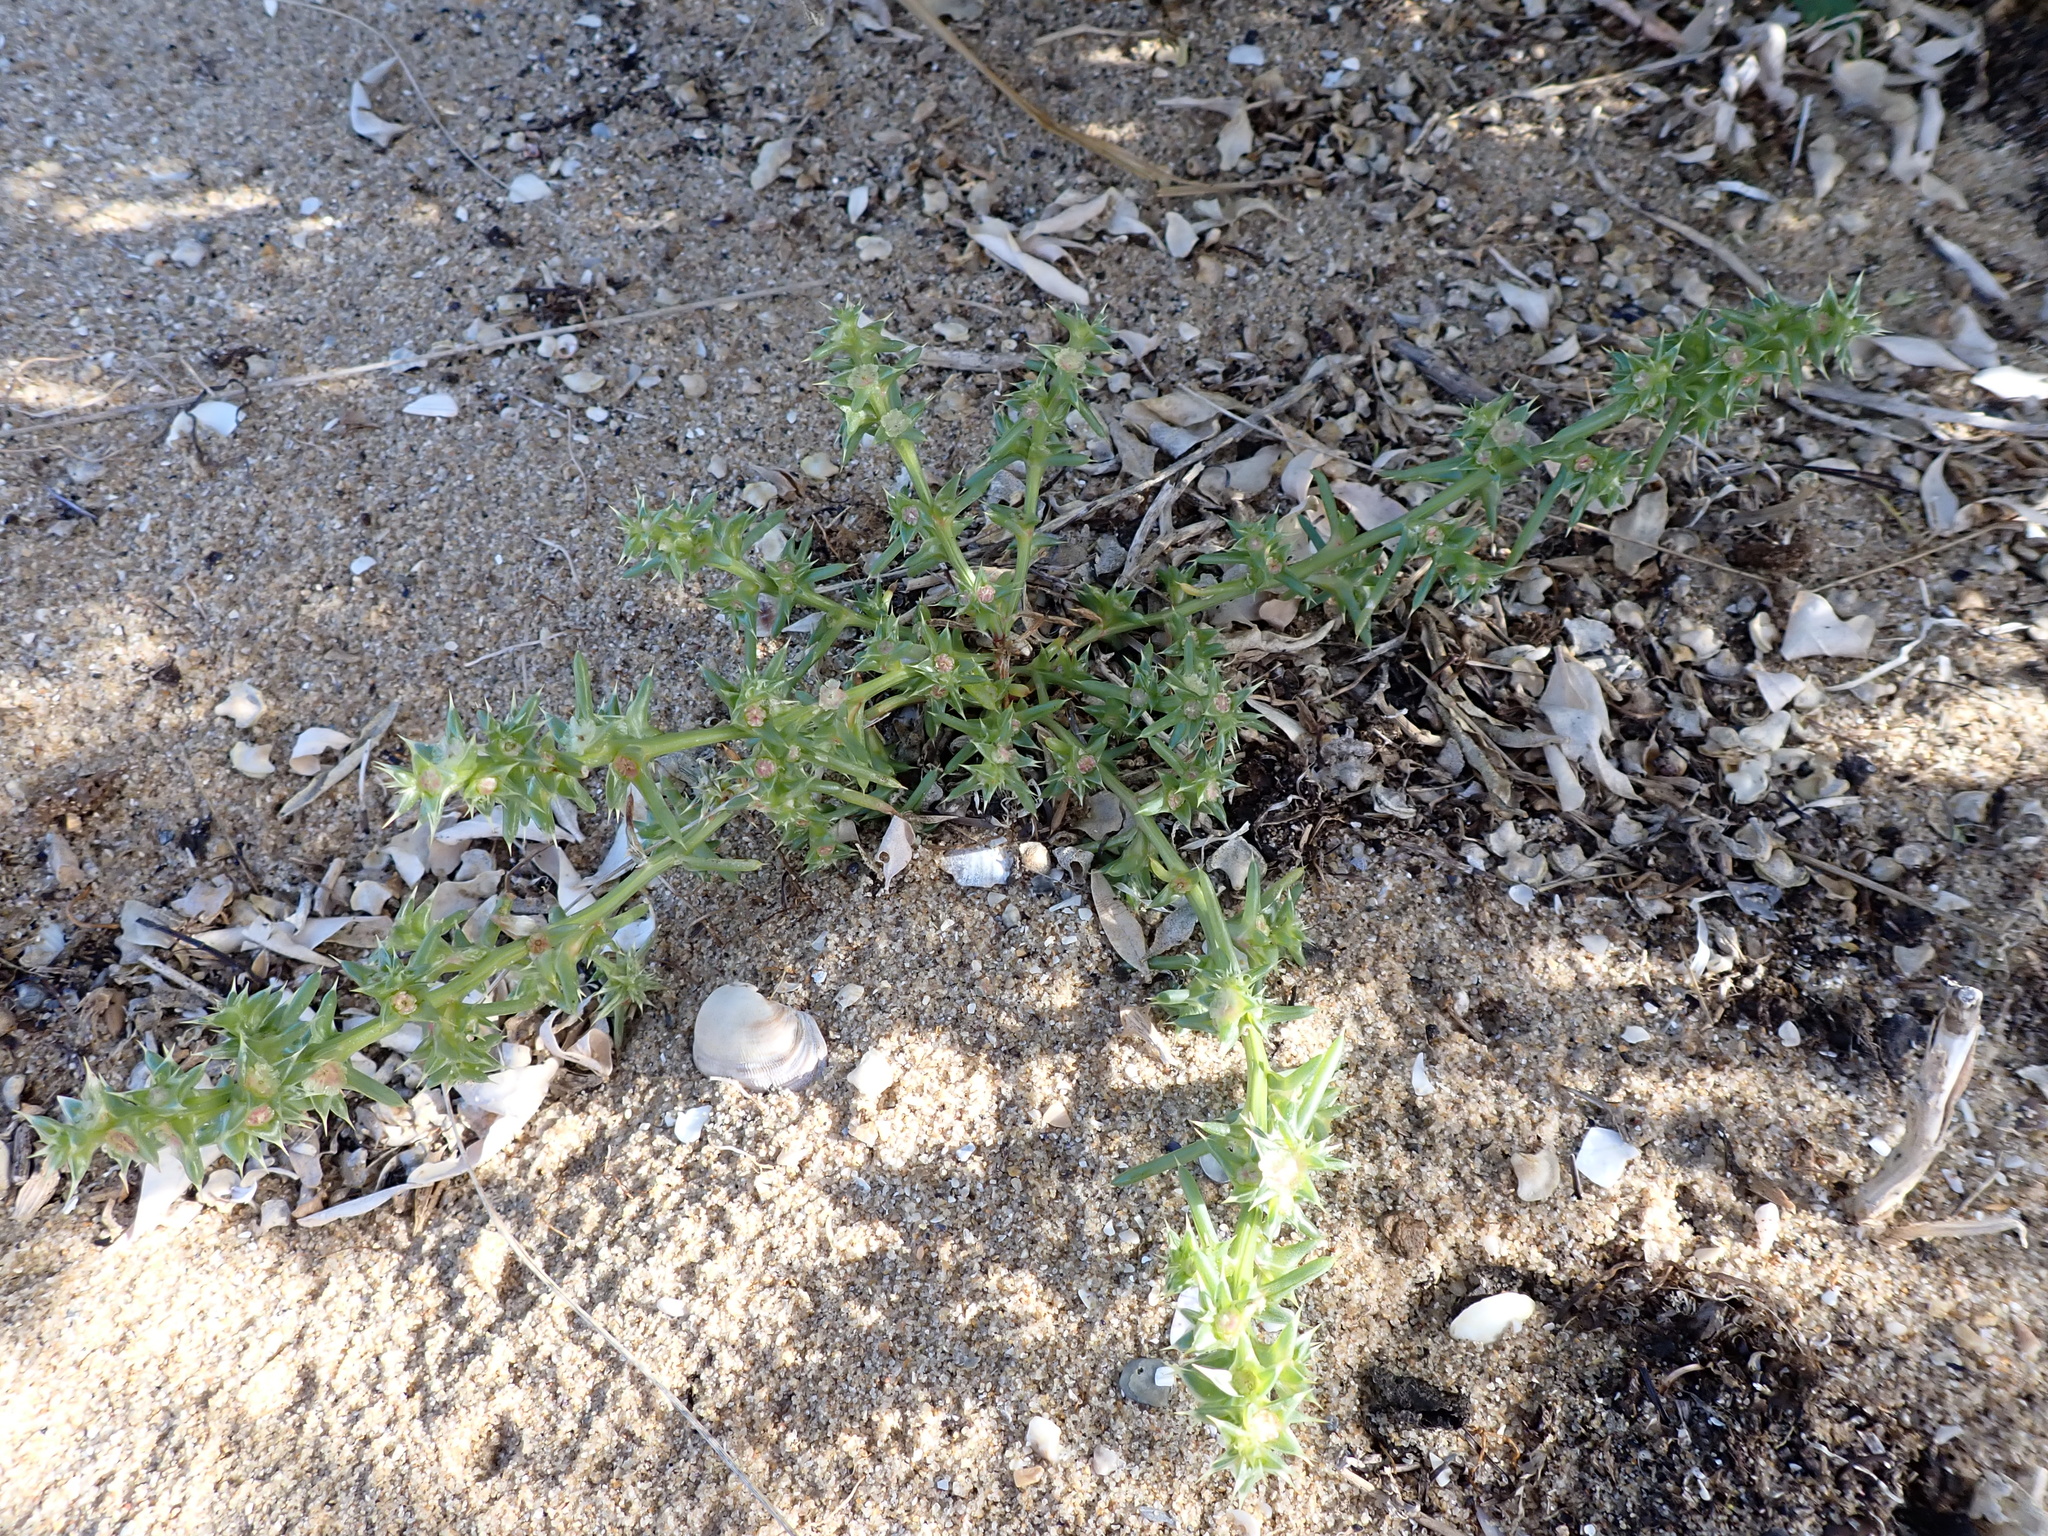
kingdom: Plantae
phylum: Tracheophyta
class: Magnoliopsida
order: Caryophyllales
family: Amaranthaceae
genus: Salsola
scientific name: Salsola australis
